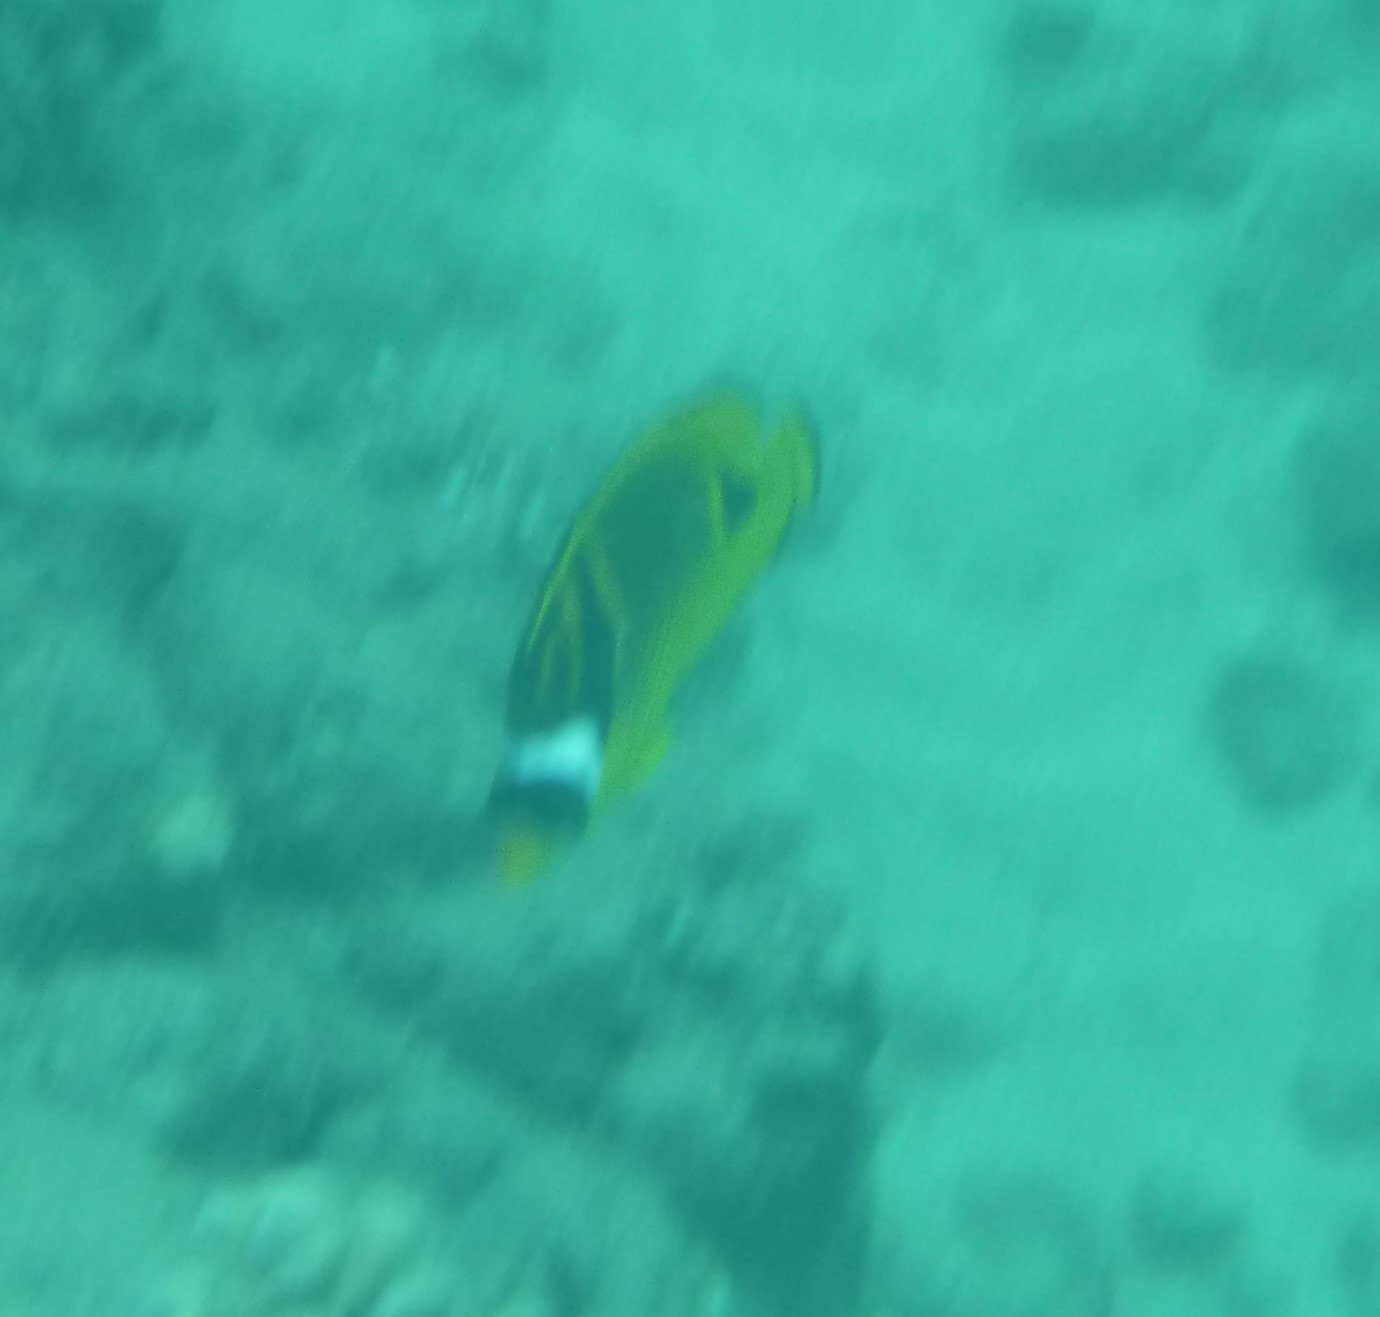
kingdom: Animalia
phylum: Chordata
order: Perciformes
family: Chaetodontidae
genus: Chaetodon
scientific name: Chaetodon lunula
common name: Raccoon butterflyfish
